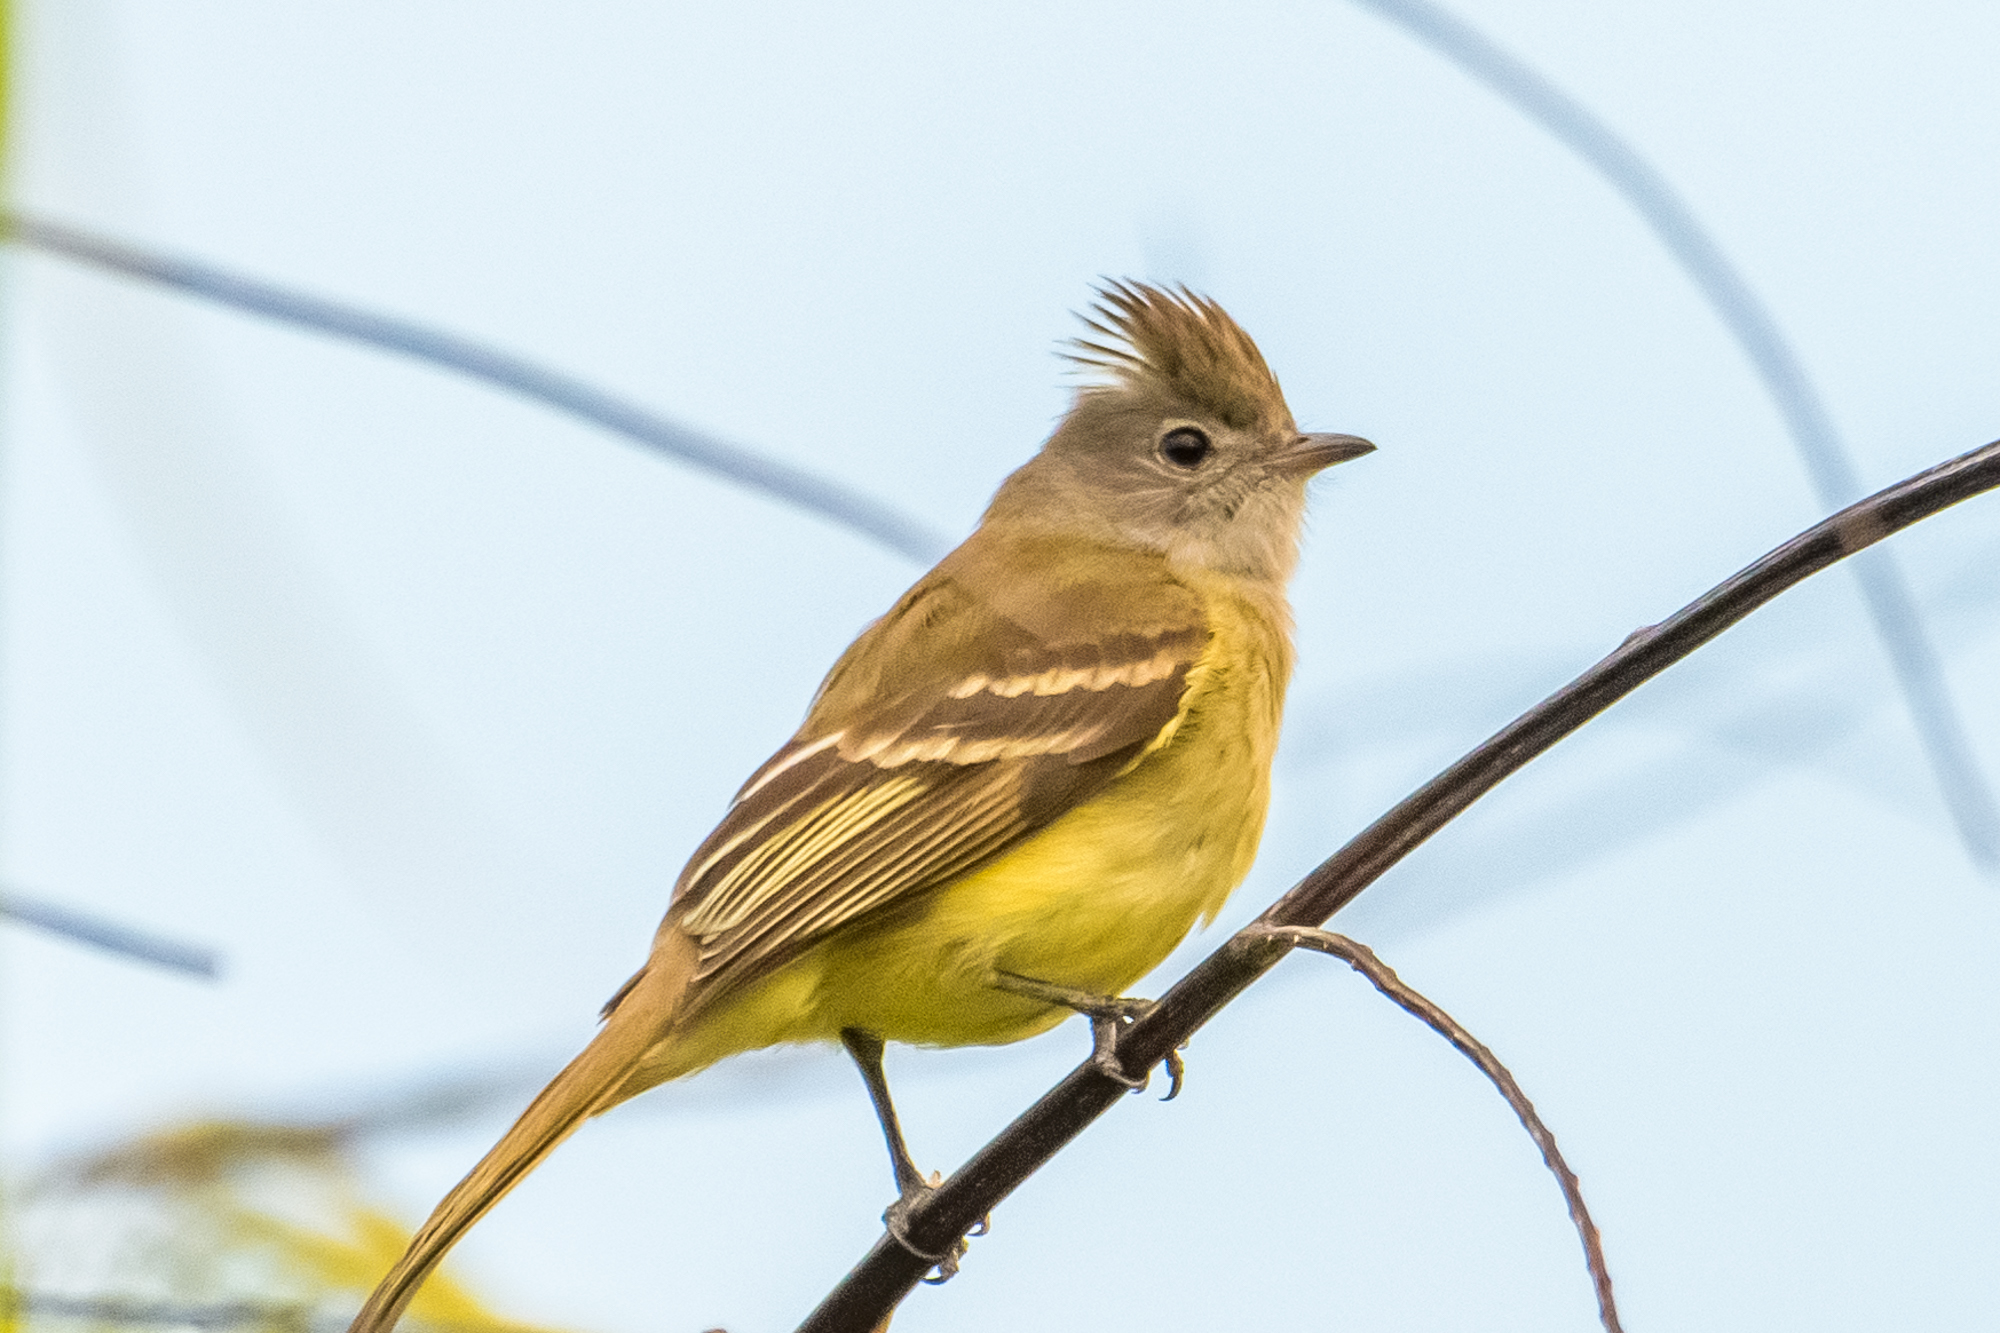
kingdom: Animalia
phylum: Chordata
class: Aves
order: Passeriformes
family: Tyrannidae
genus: Elaenia
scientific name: Elaenia flavogaster
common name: Yellow-bellied elaenia
